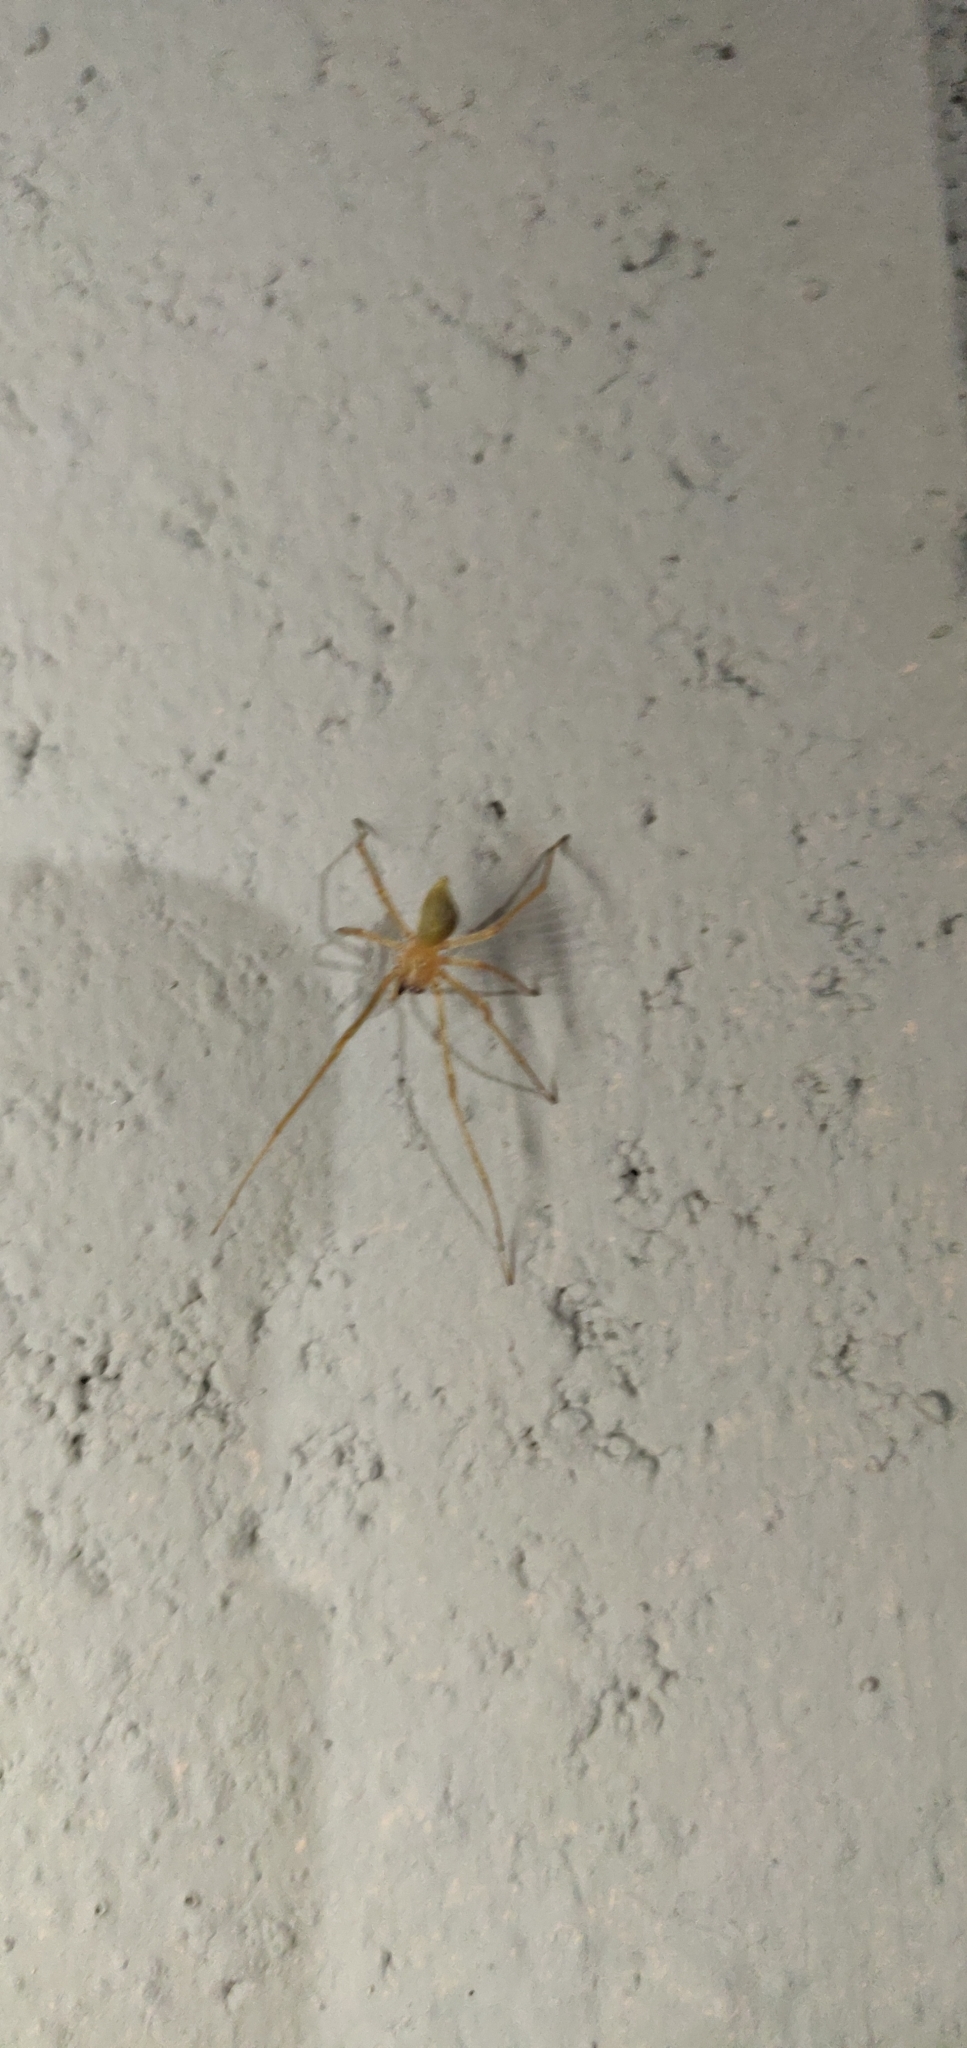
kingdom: Animalia
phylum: Arthropoda
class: Arachnida
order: Araneae
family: Cheiracanthiidae
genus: Cheiracanthium
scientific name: Cheiracanthium inclusum
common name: Long-legged sac spiders
